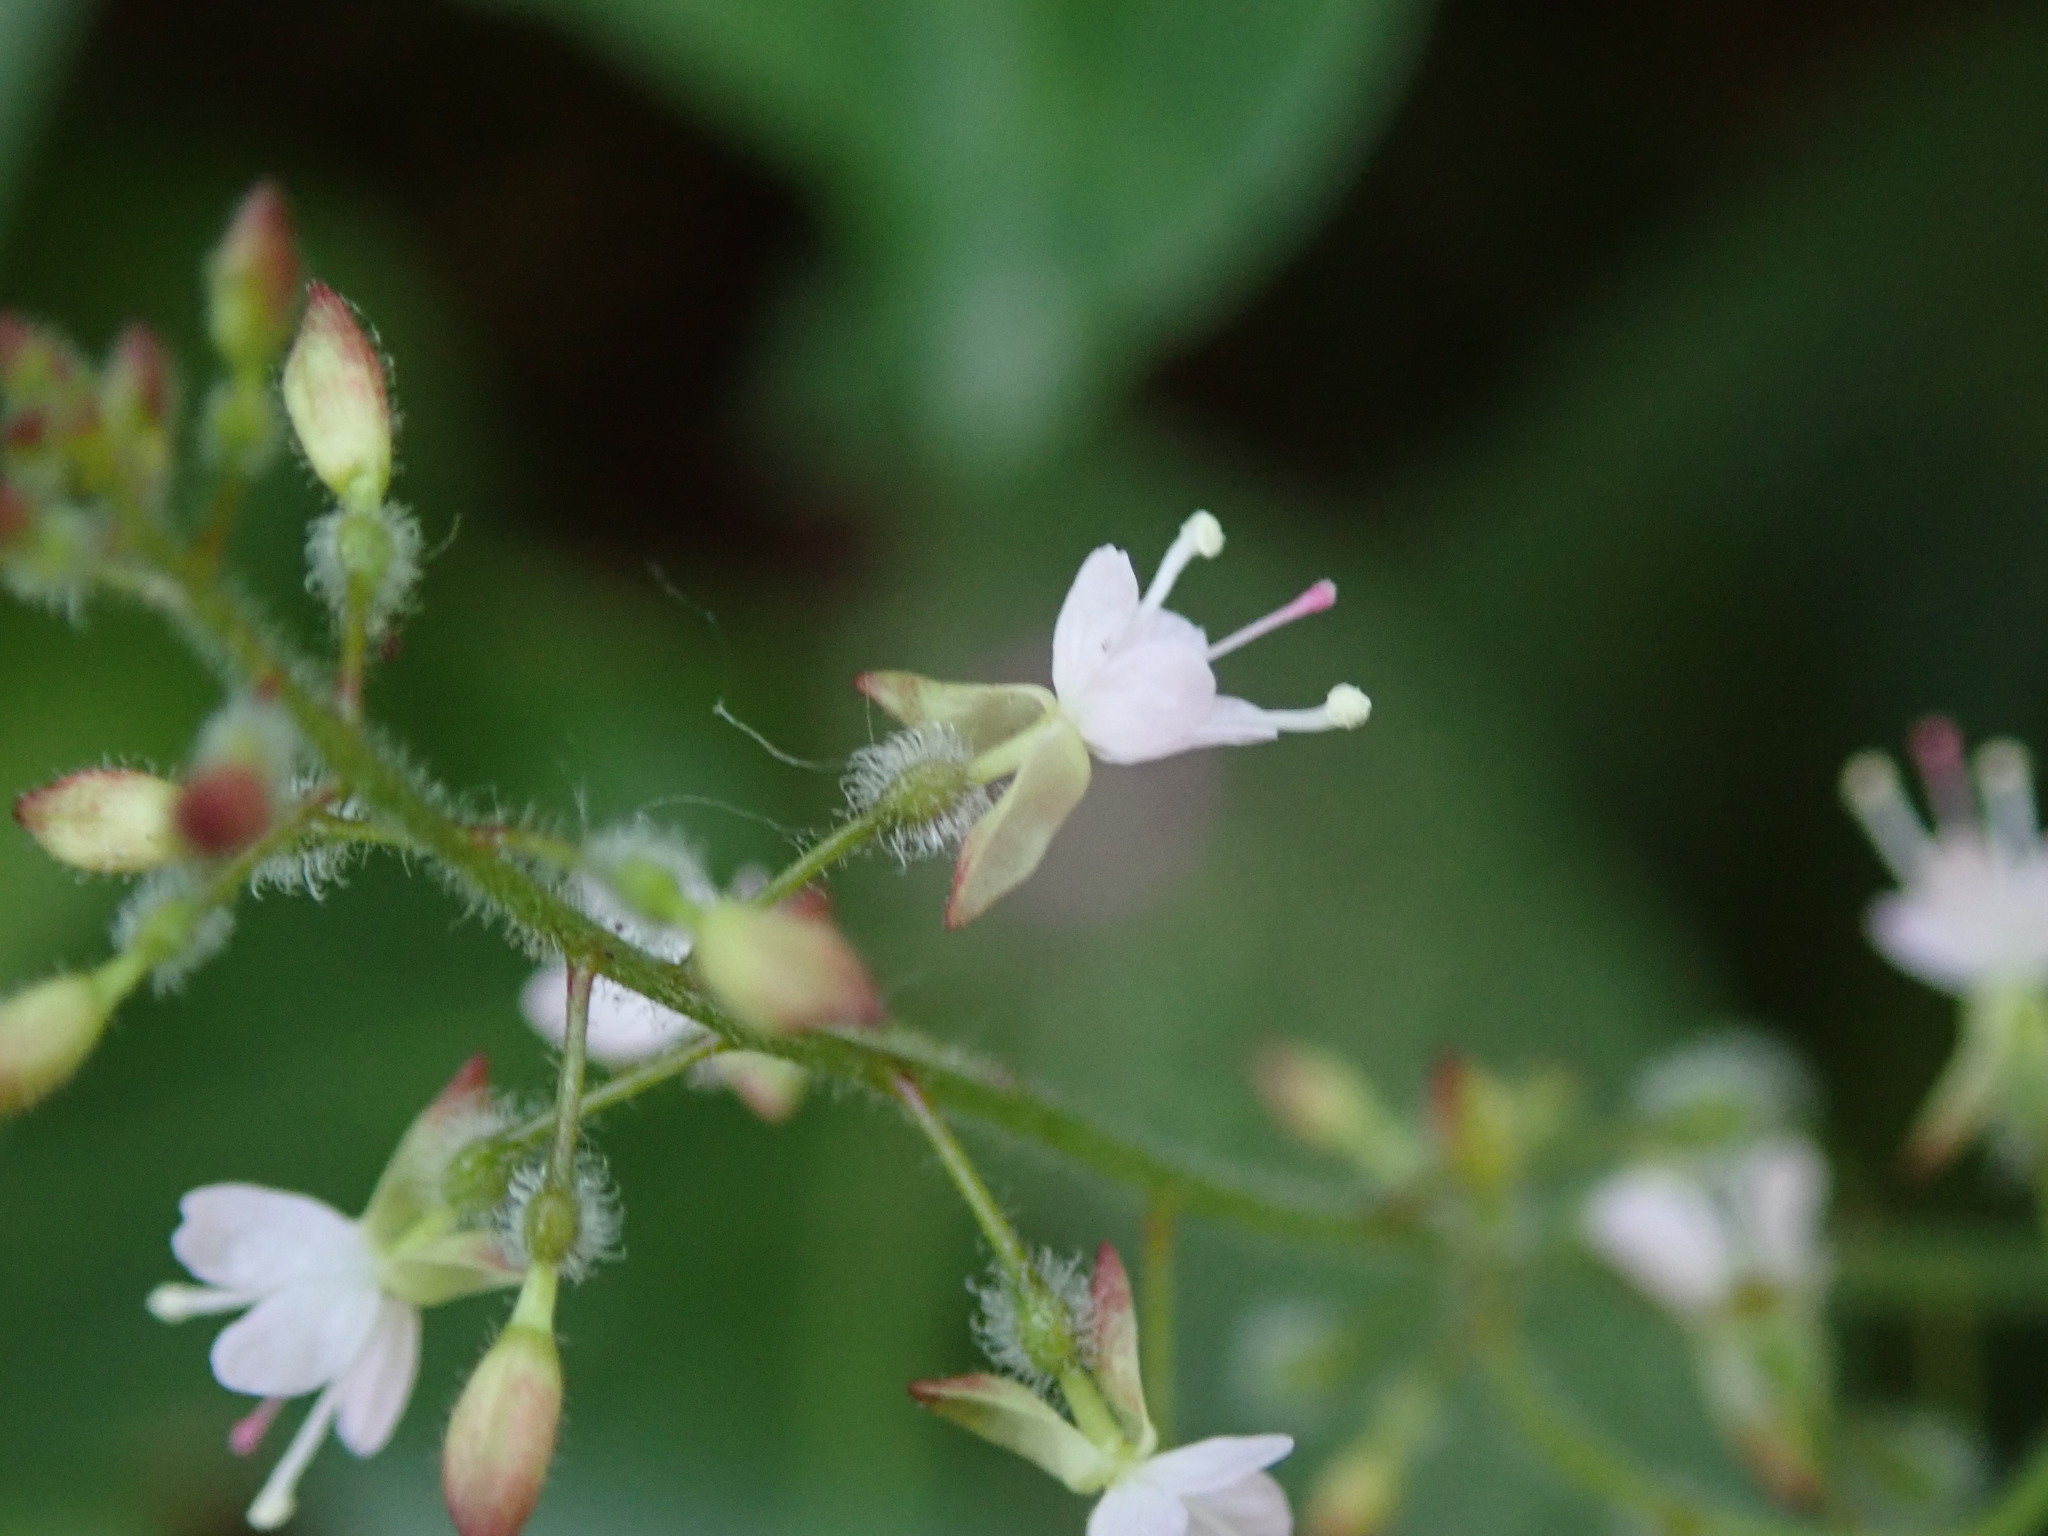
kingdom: Plantae
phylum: Tracheophyta
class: Magnoliopsida
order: Myrtales
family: Onagraceae
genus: Circaea
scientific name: Circaea lutetiana
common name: Enchanter's-nightshade
